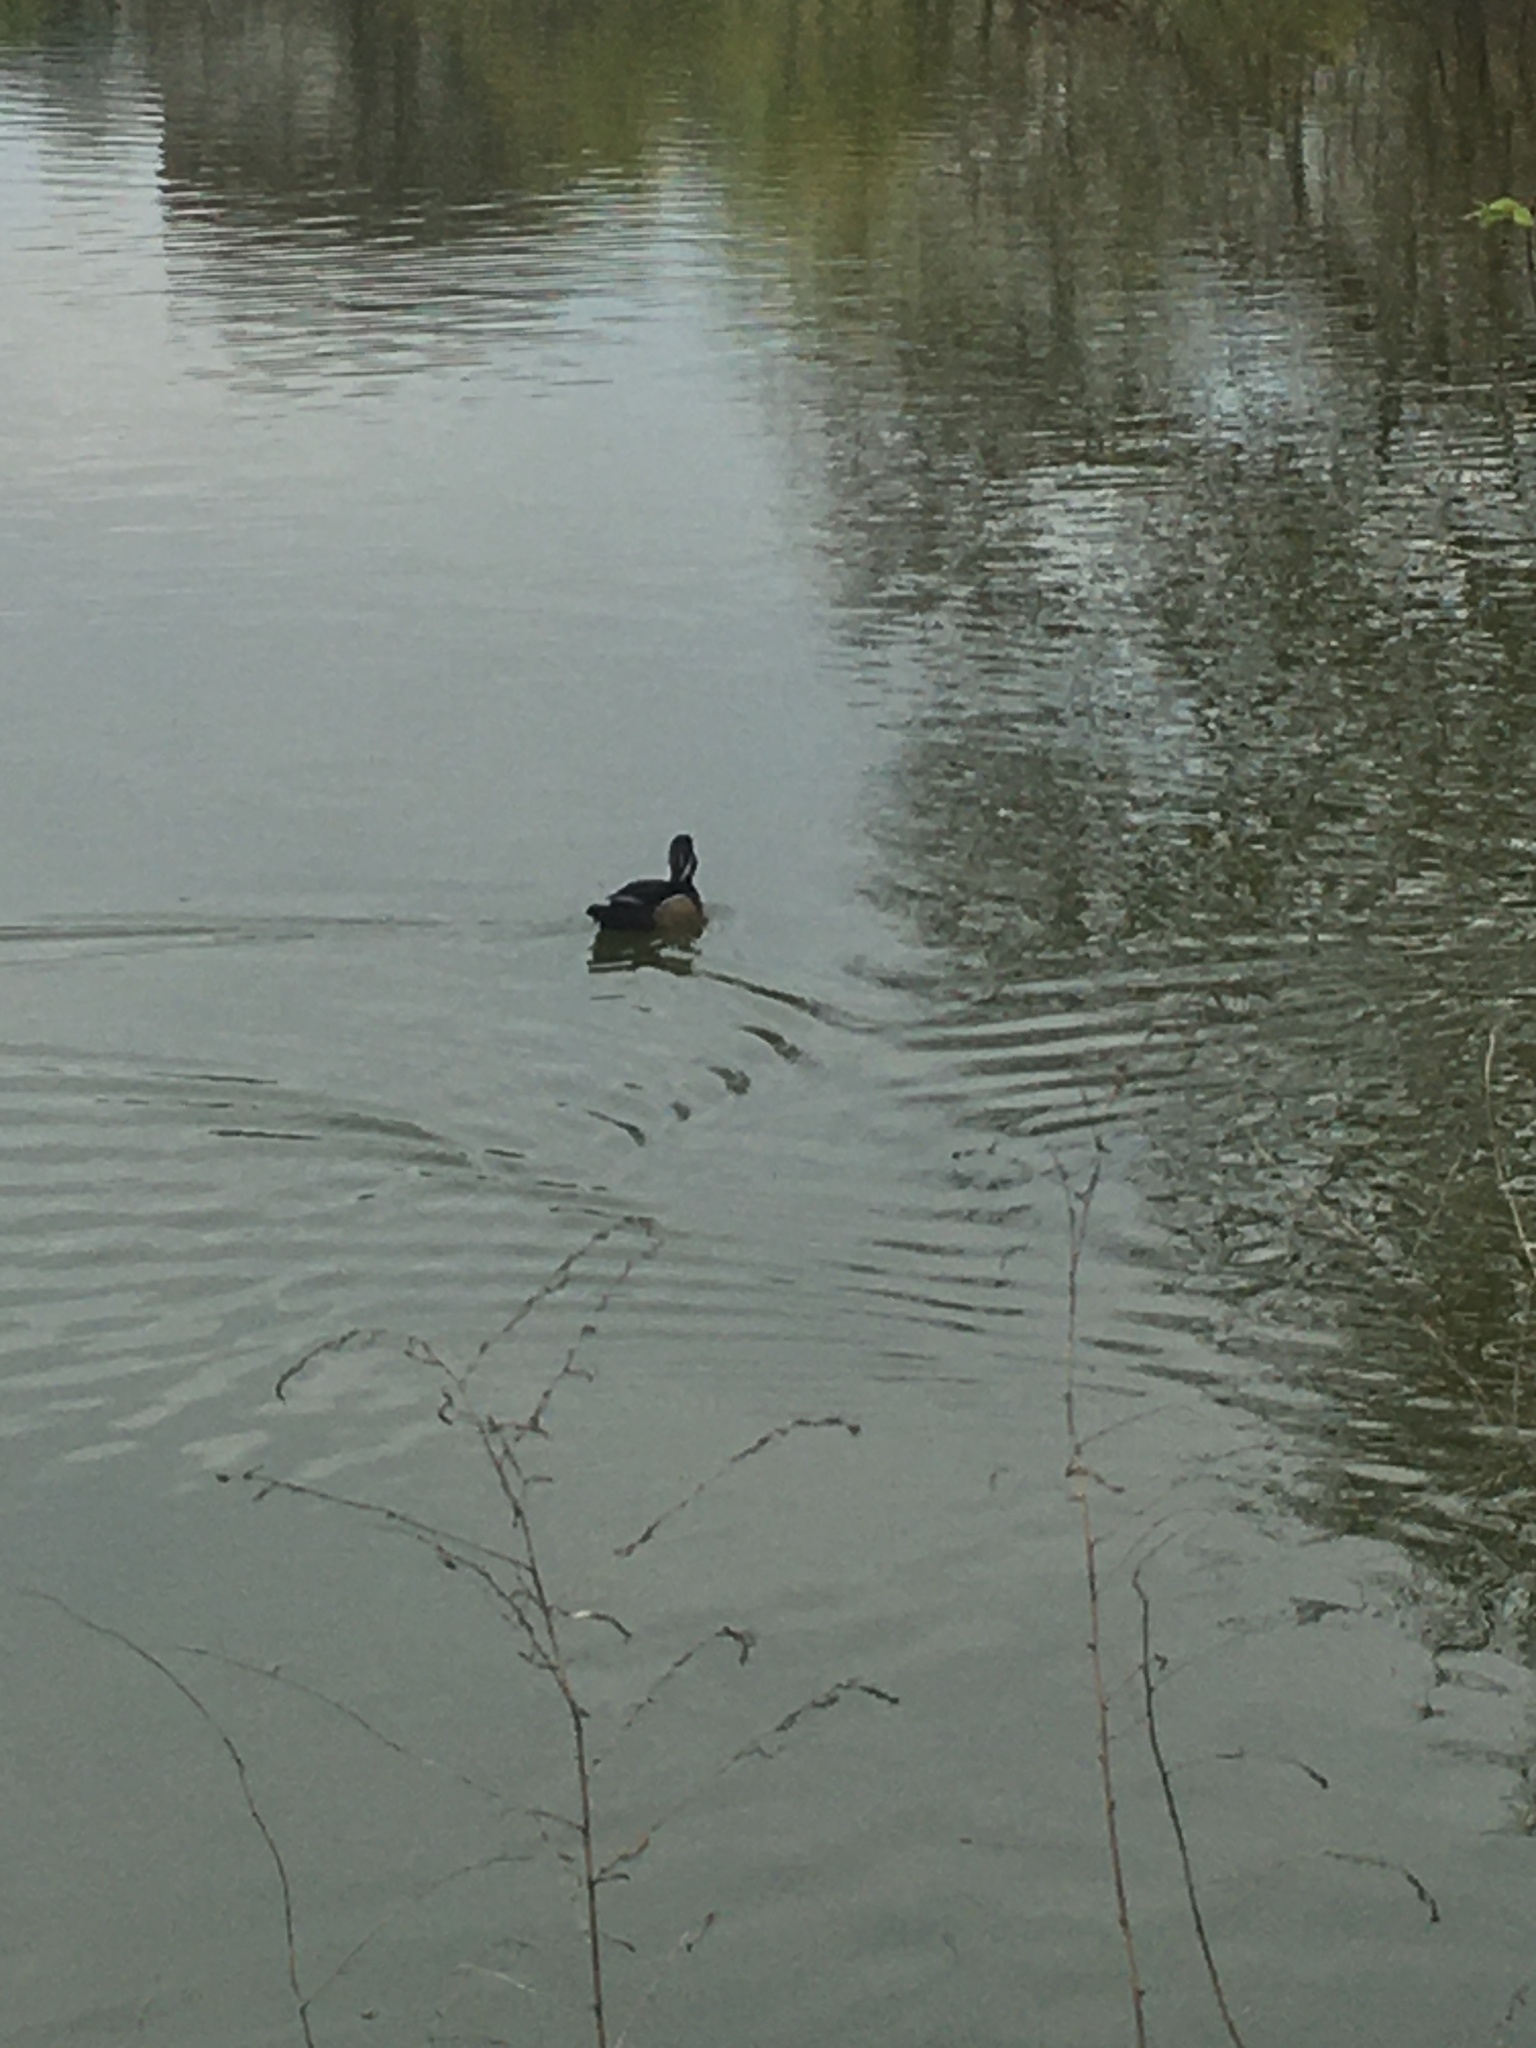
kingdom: Animalia
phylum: Chordata
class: Aves
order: Anseriformes
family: Anatidae
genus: Aix
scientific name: Aix sponsa
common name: Wood duck
